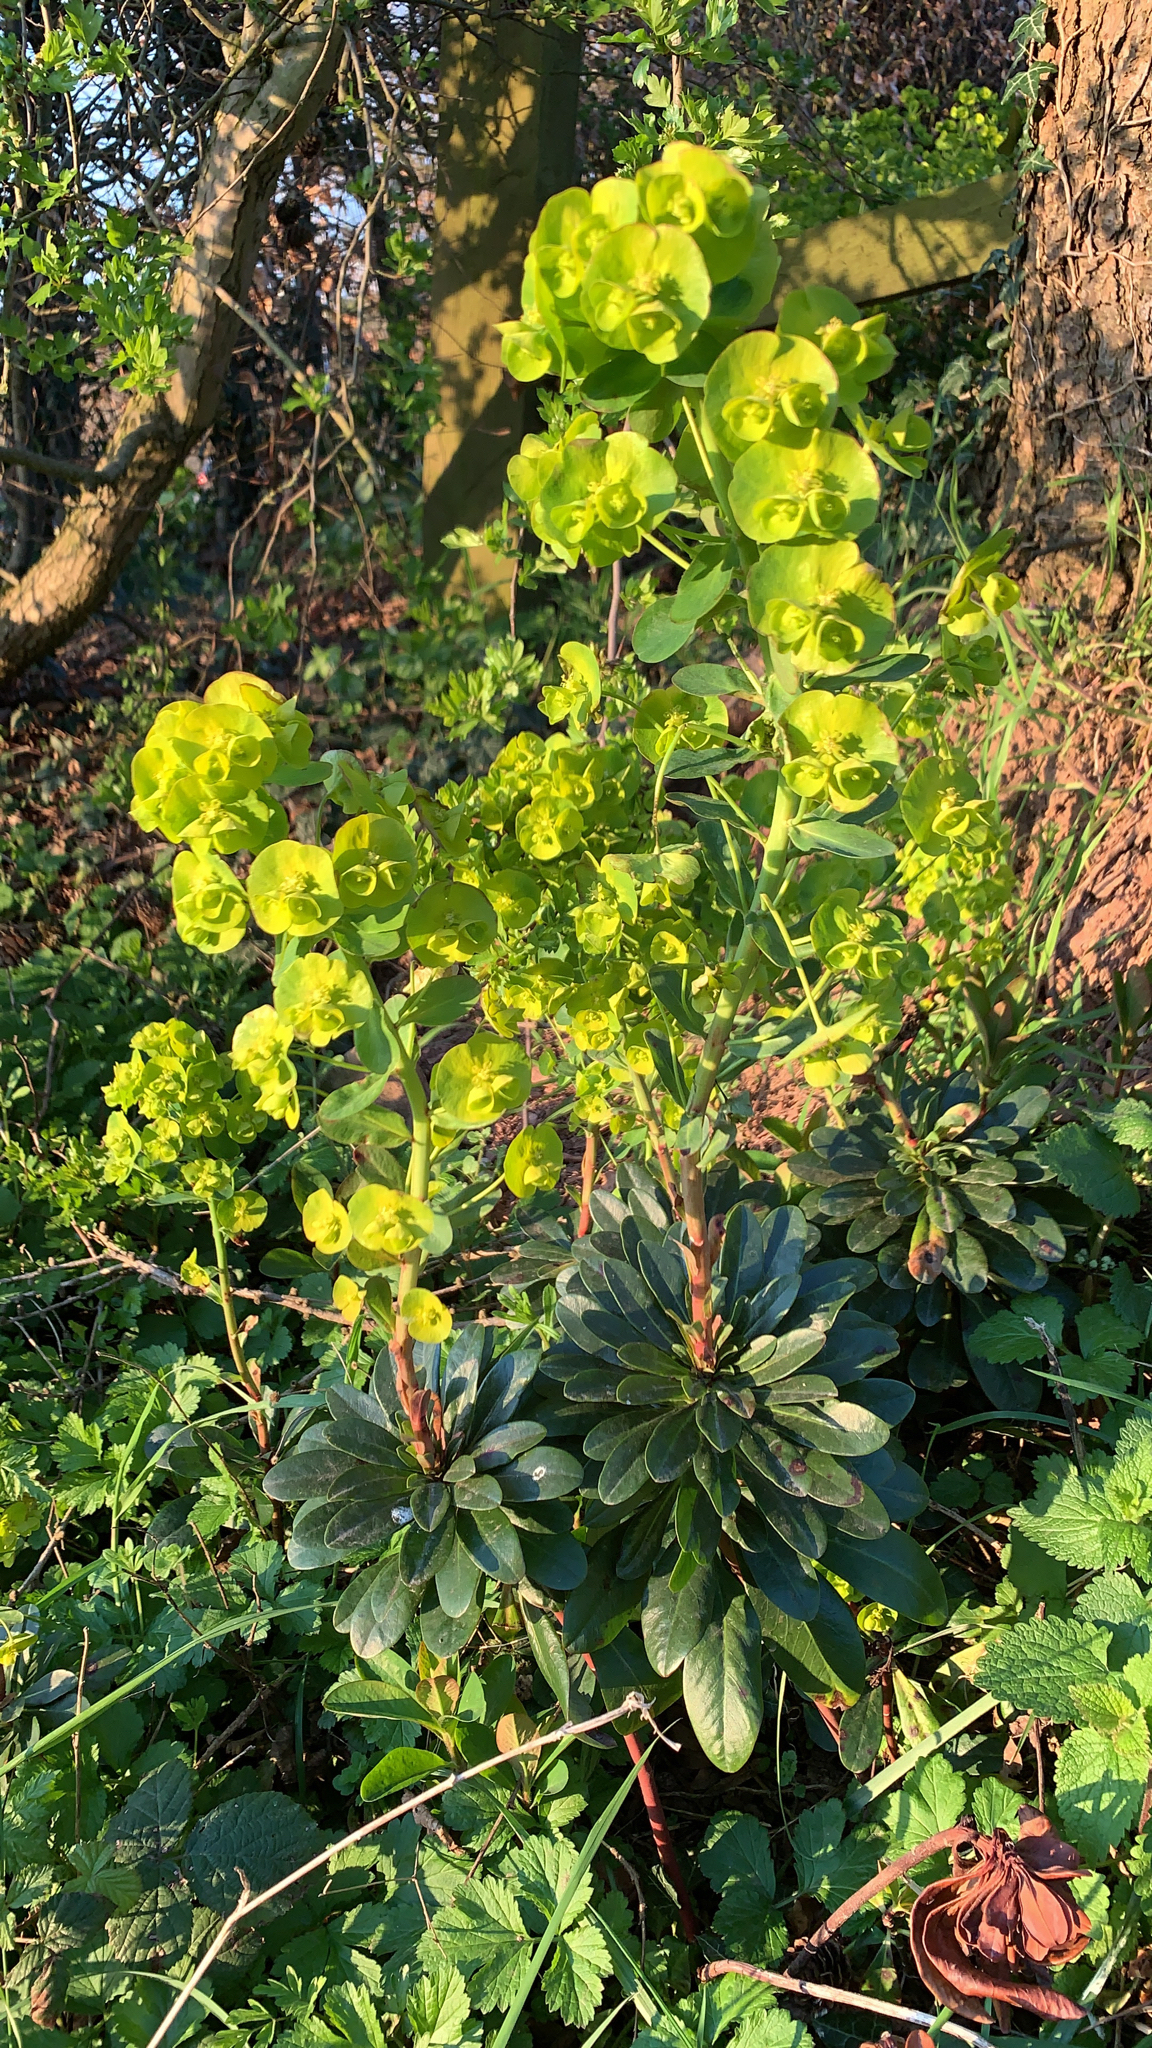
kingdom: Plantae
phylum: Tracheophyta
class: Magnoliopsida
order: Malpighiales
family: Euphorbiaceae
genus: Euphorbia
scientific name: Euphorbia amygdaloides
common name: Wood spurge
